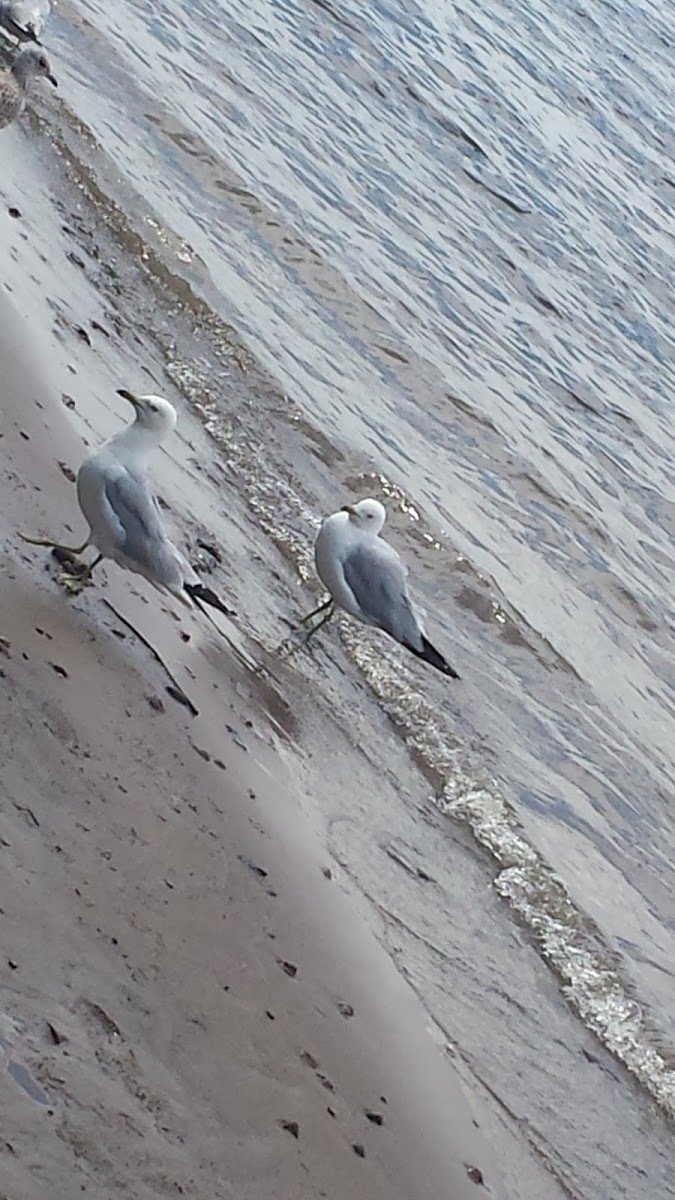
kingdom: Animalia
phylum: Chordata
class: Aves
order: Charadriiformes
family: Laridae
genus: Larus
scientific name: Larus delawarensis
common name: Ring-billed gull
